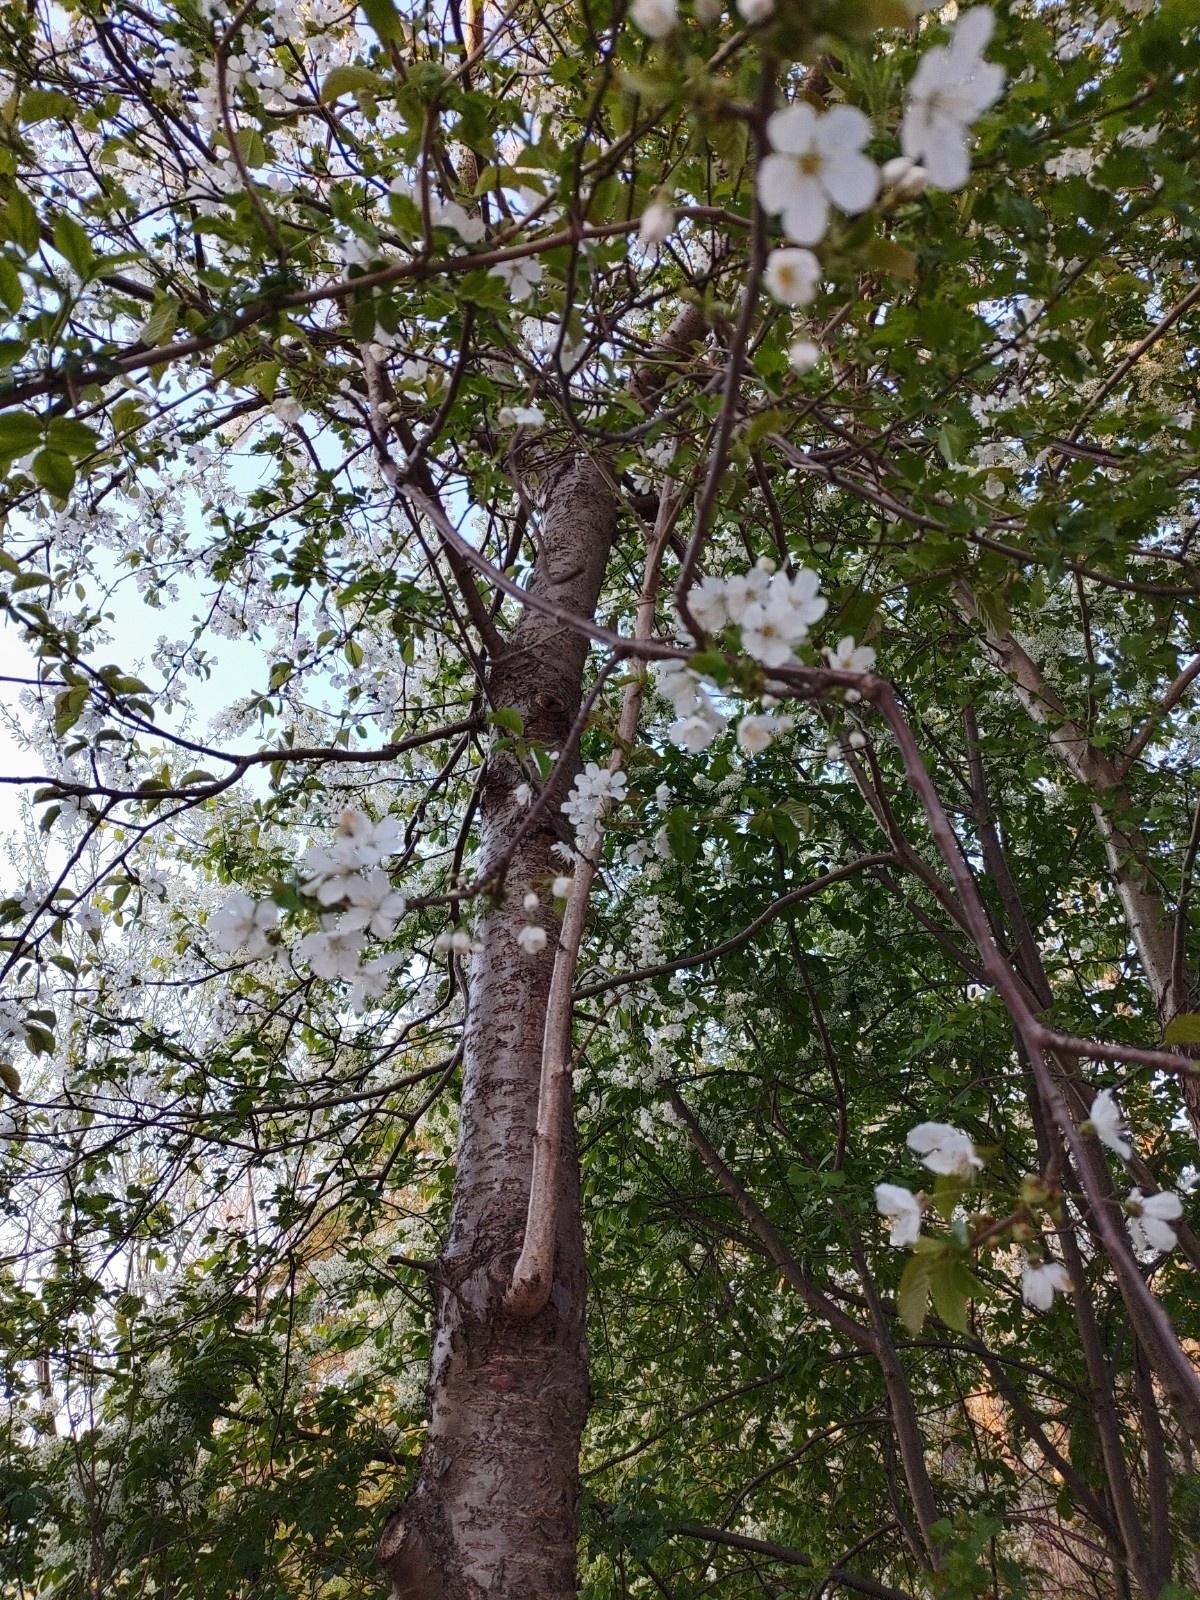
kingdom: Plantae
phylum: Tracheophyta
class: Magnoliopsida
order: Rosales
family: Rosaceae
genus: Prunus
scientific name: Prunus avium
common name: Sweet cherry
